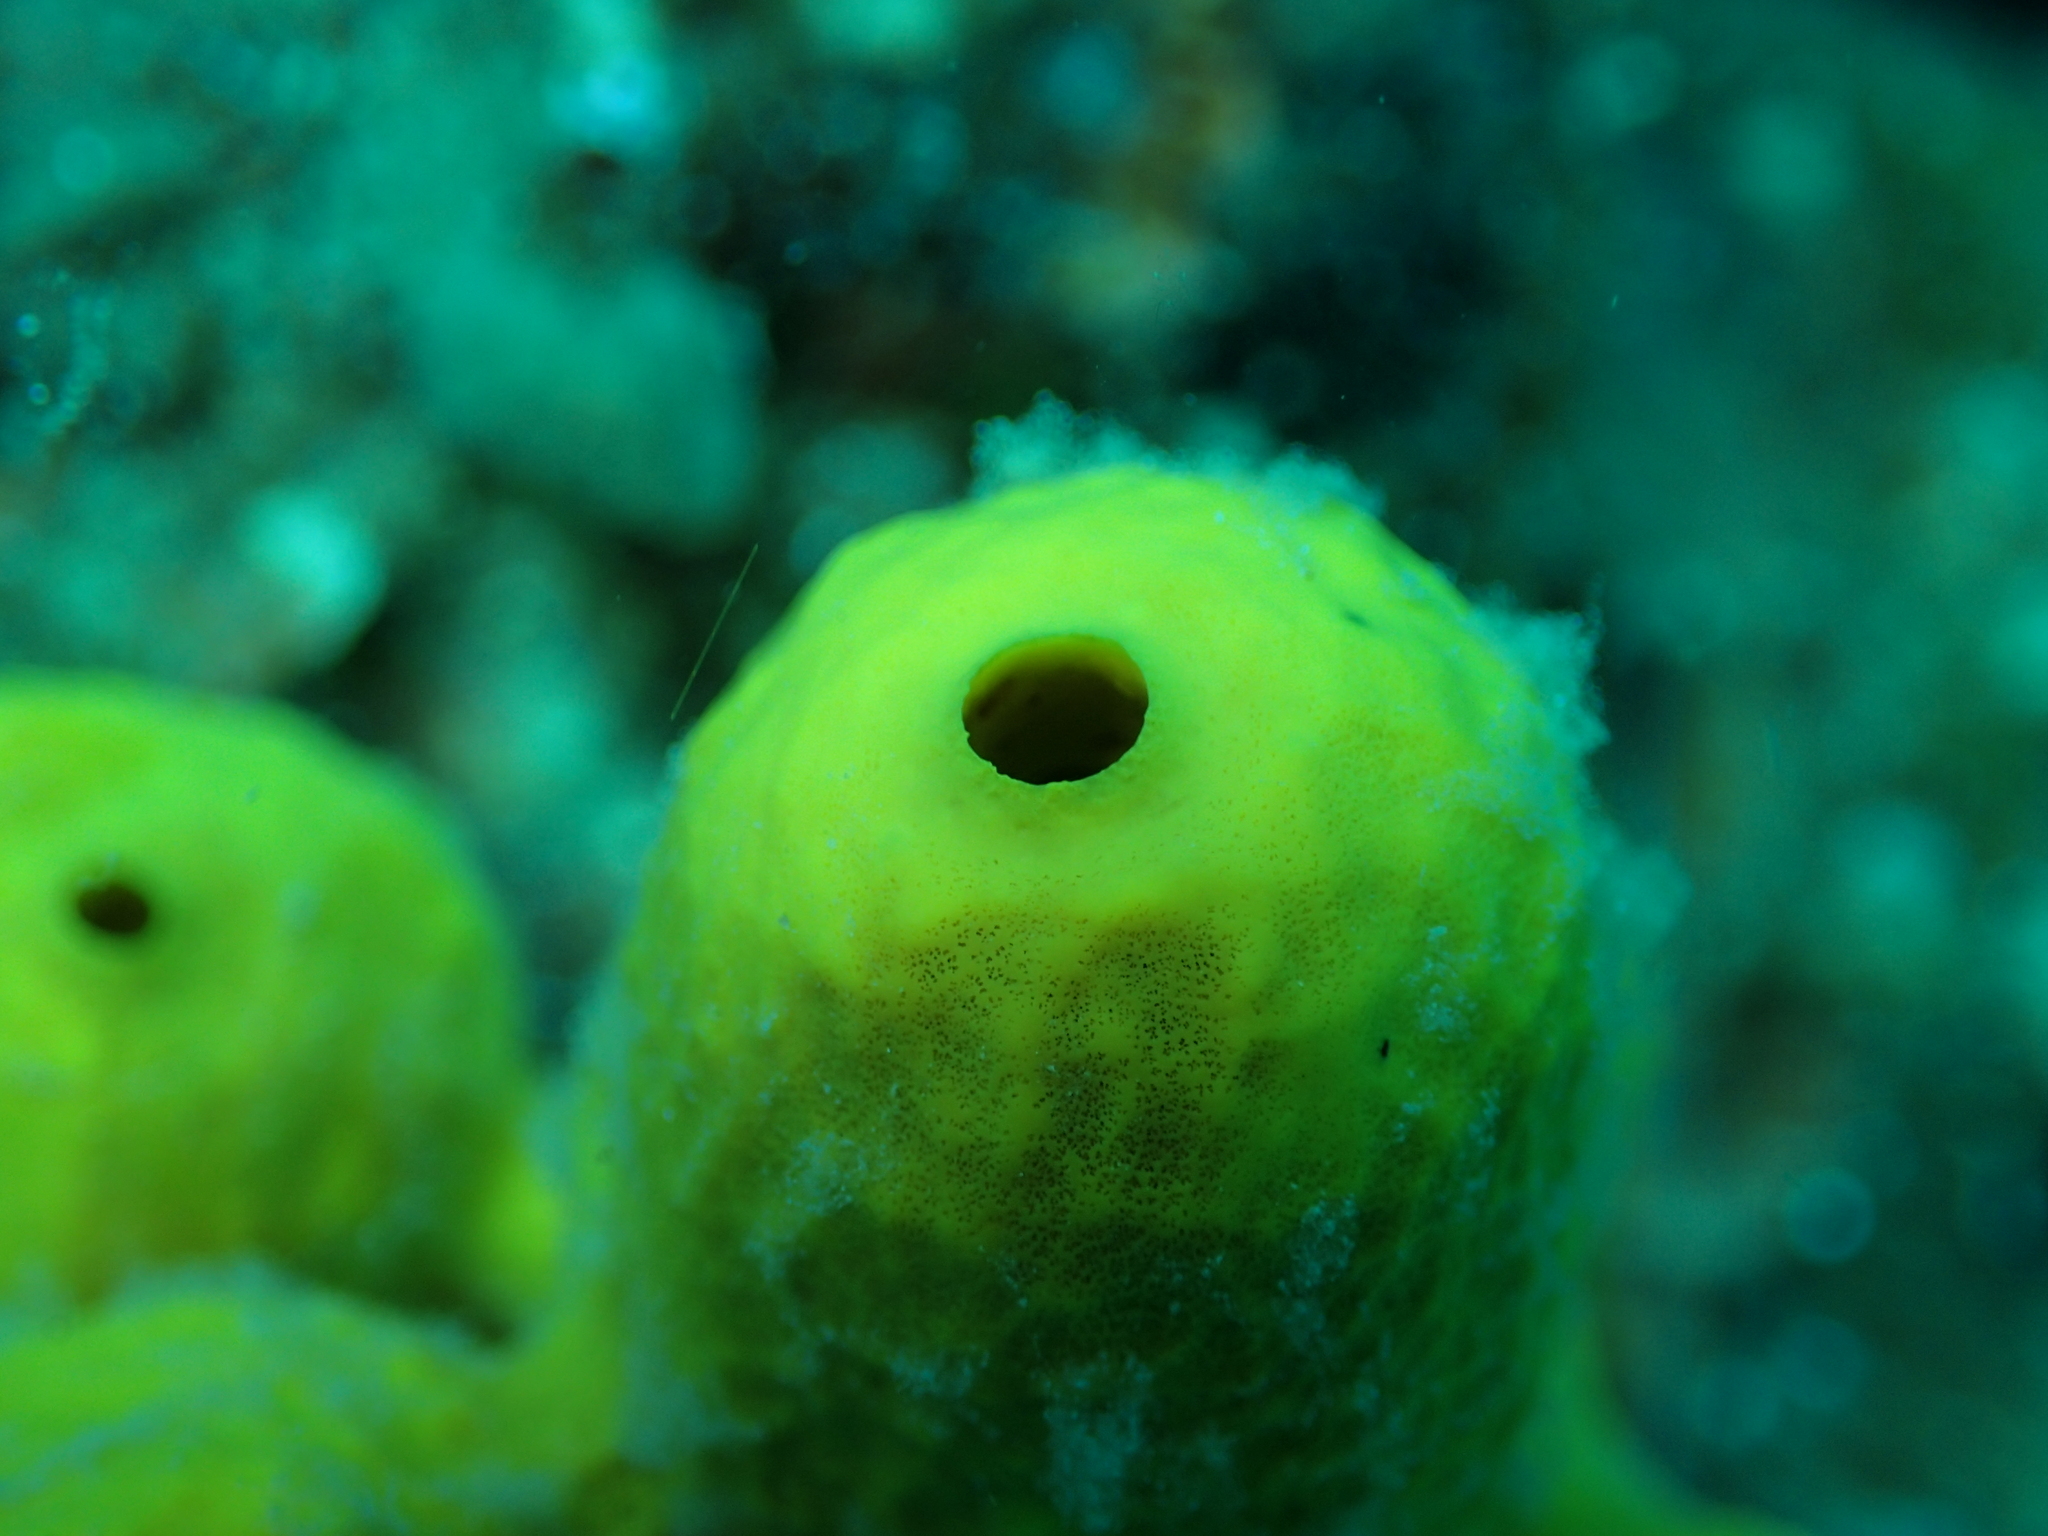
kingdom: Animalia
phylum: Porifera
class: Demospongiae
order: Verongiida
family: Aplysinidae
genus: Aplysina
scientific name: Aplysina aerophoba
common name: Aureate sponge
